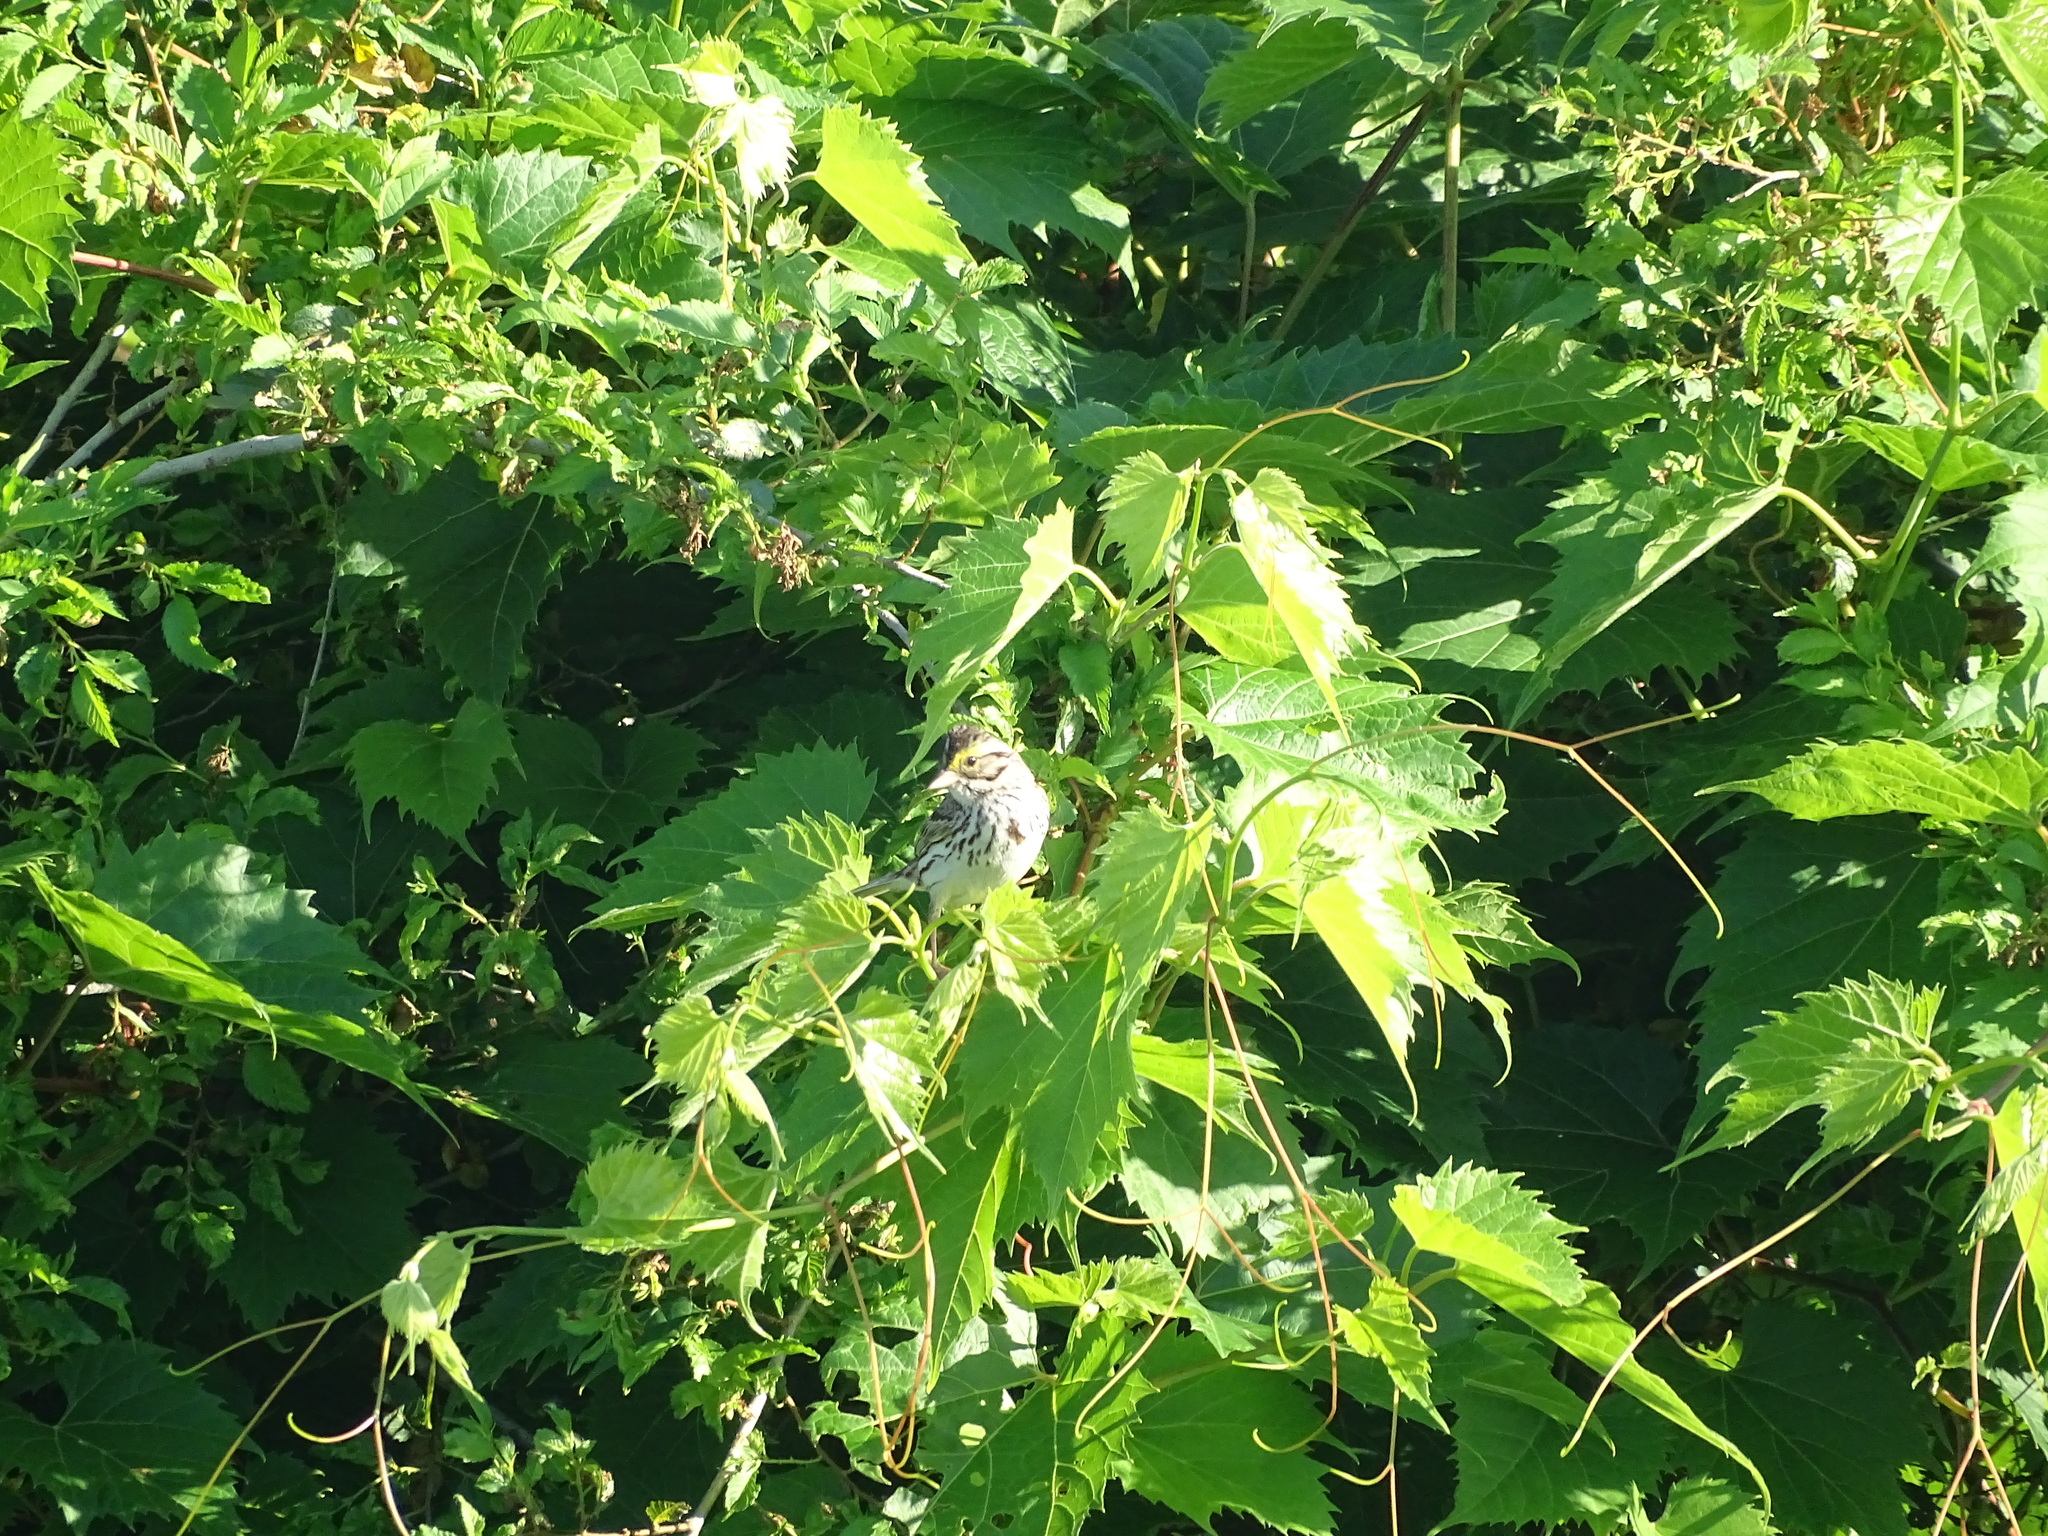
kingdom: Animalia
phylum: Chordata
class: Aves
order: Passeriformes
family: Passerellidae
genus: Passerculus
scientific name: Passerculus sandwichensis
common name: Savannah sparrow
